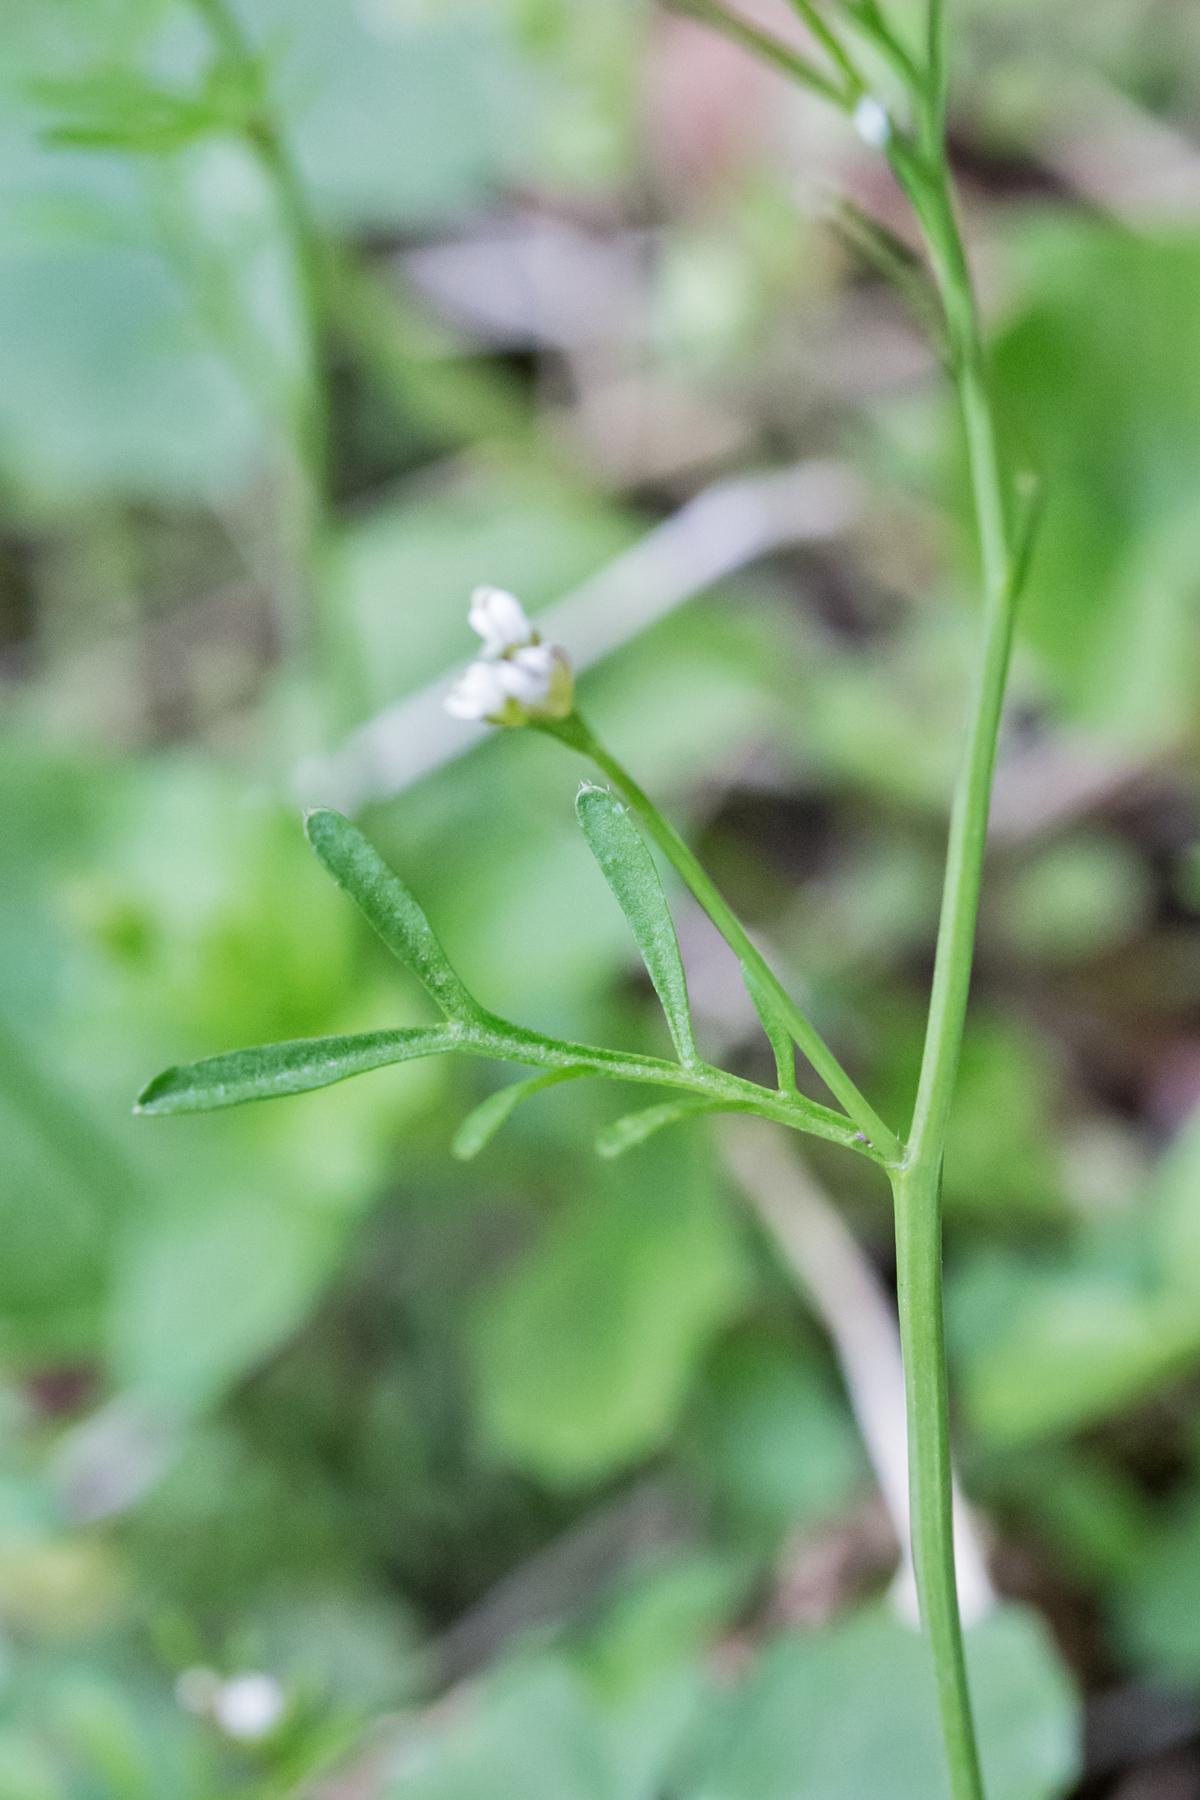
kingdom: Plantae
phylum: Tracheophyta
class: Magnoliopsida
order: Brassicales
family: Brassicaceae
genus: Cardamine
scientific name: Cardamine hirsuta
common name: Hairy bittercress
